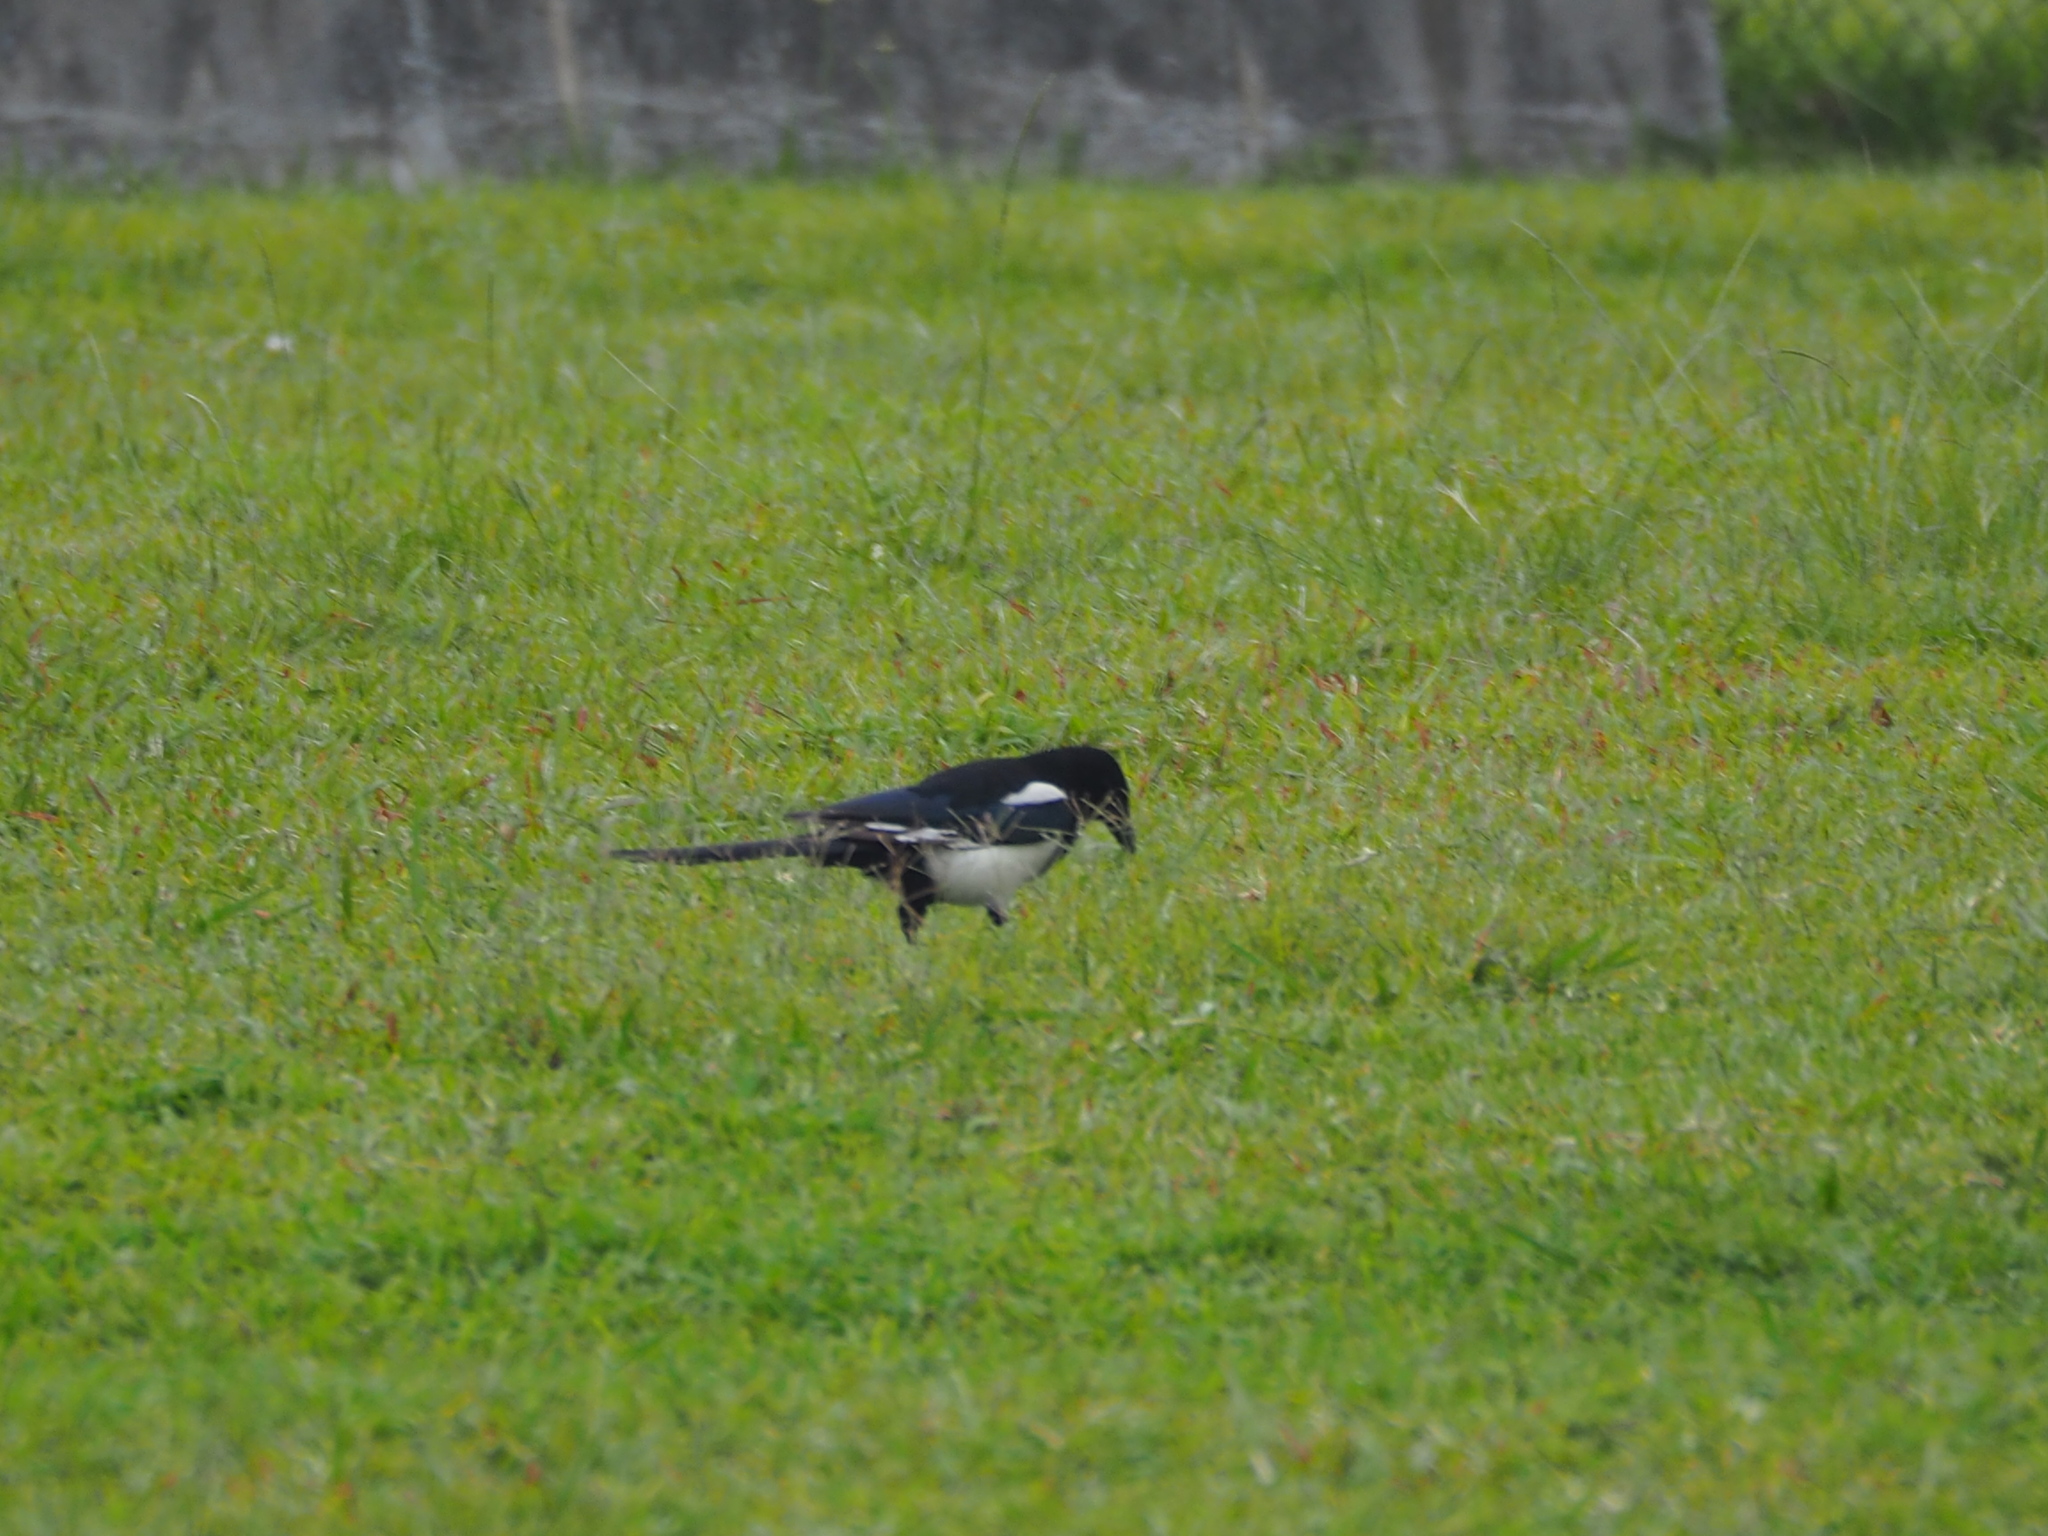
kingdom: Animalia
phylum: Chordata
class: Aves
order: Passeriformes
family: Corvidae
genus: Pica
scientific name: Pica serica
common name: Oriental magpie
